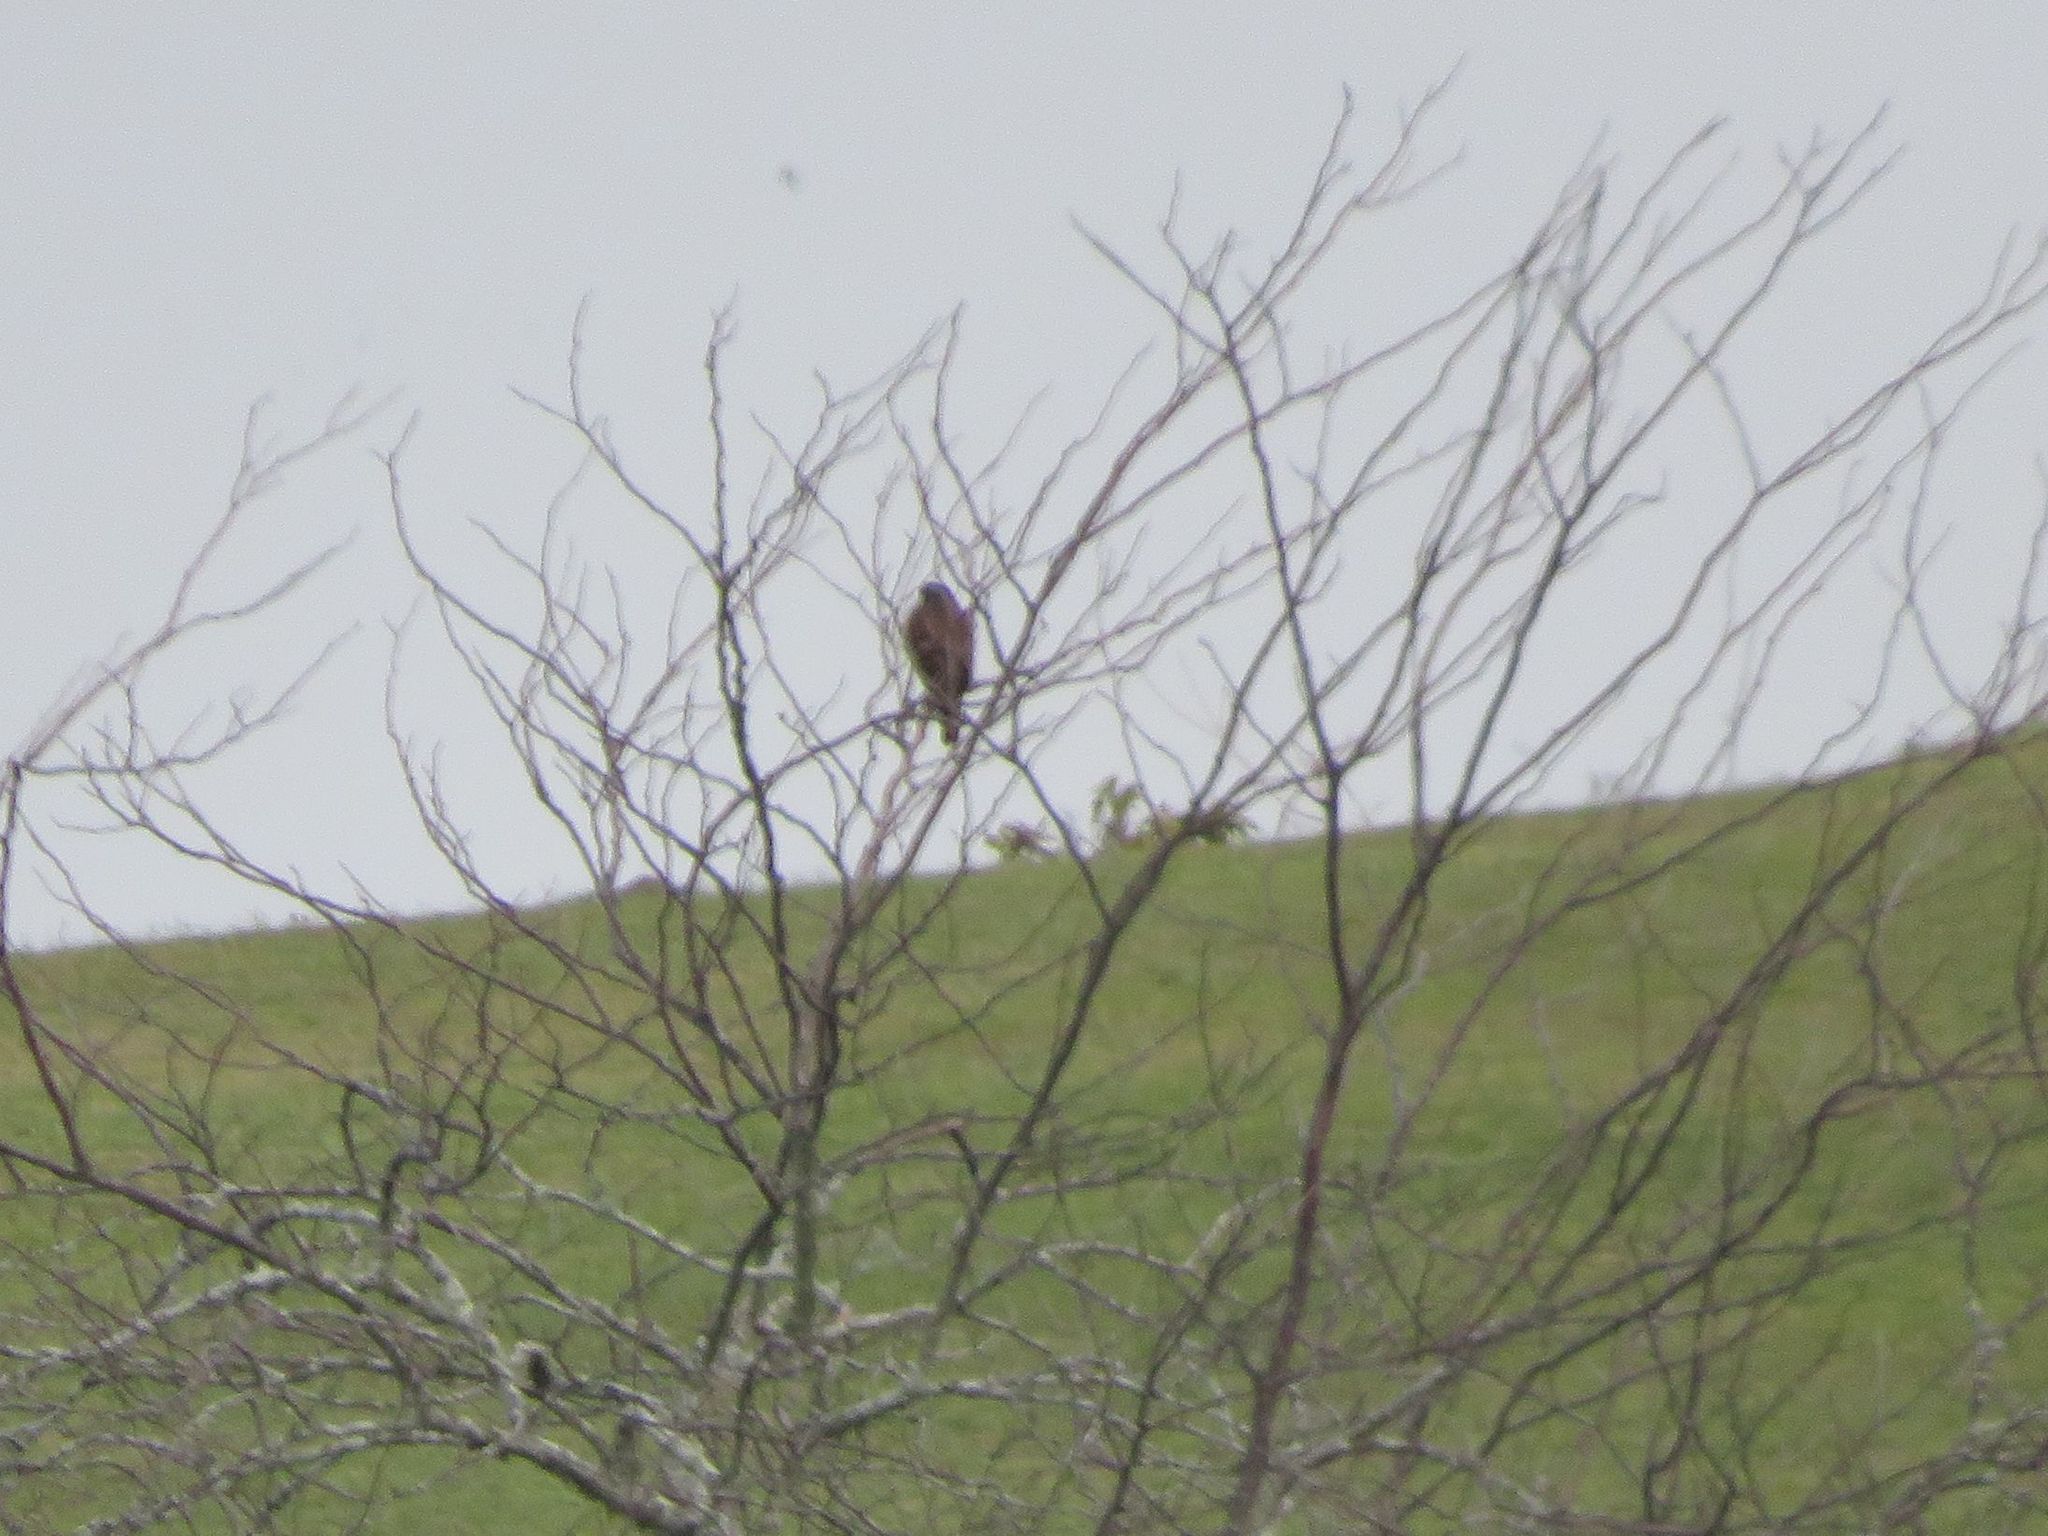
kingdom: Animalia
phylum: Chordata
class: Aves
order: Accipitriformes
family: Accipitridae
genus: Rupornis
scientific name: Rupornis magnirostris
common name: Roadside hawk
